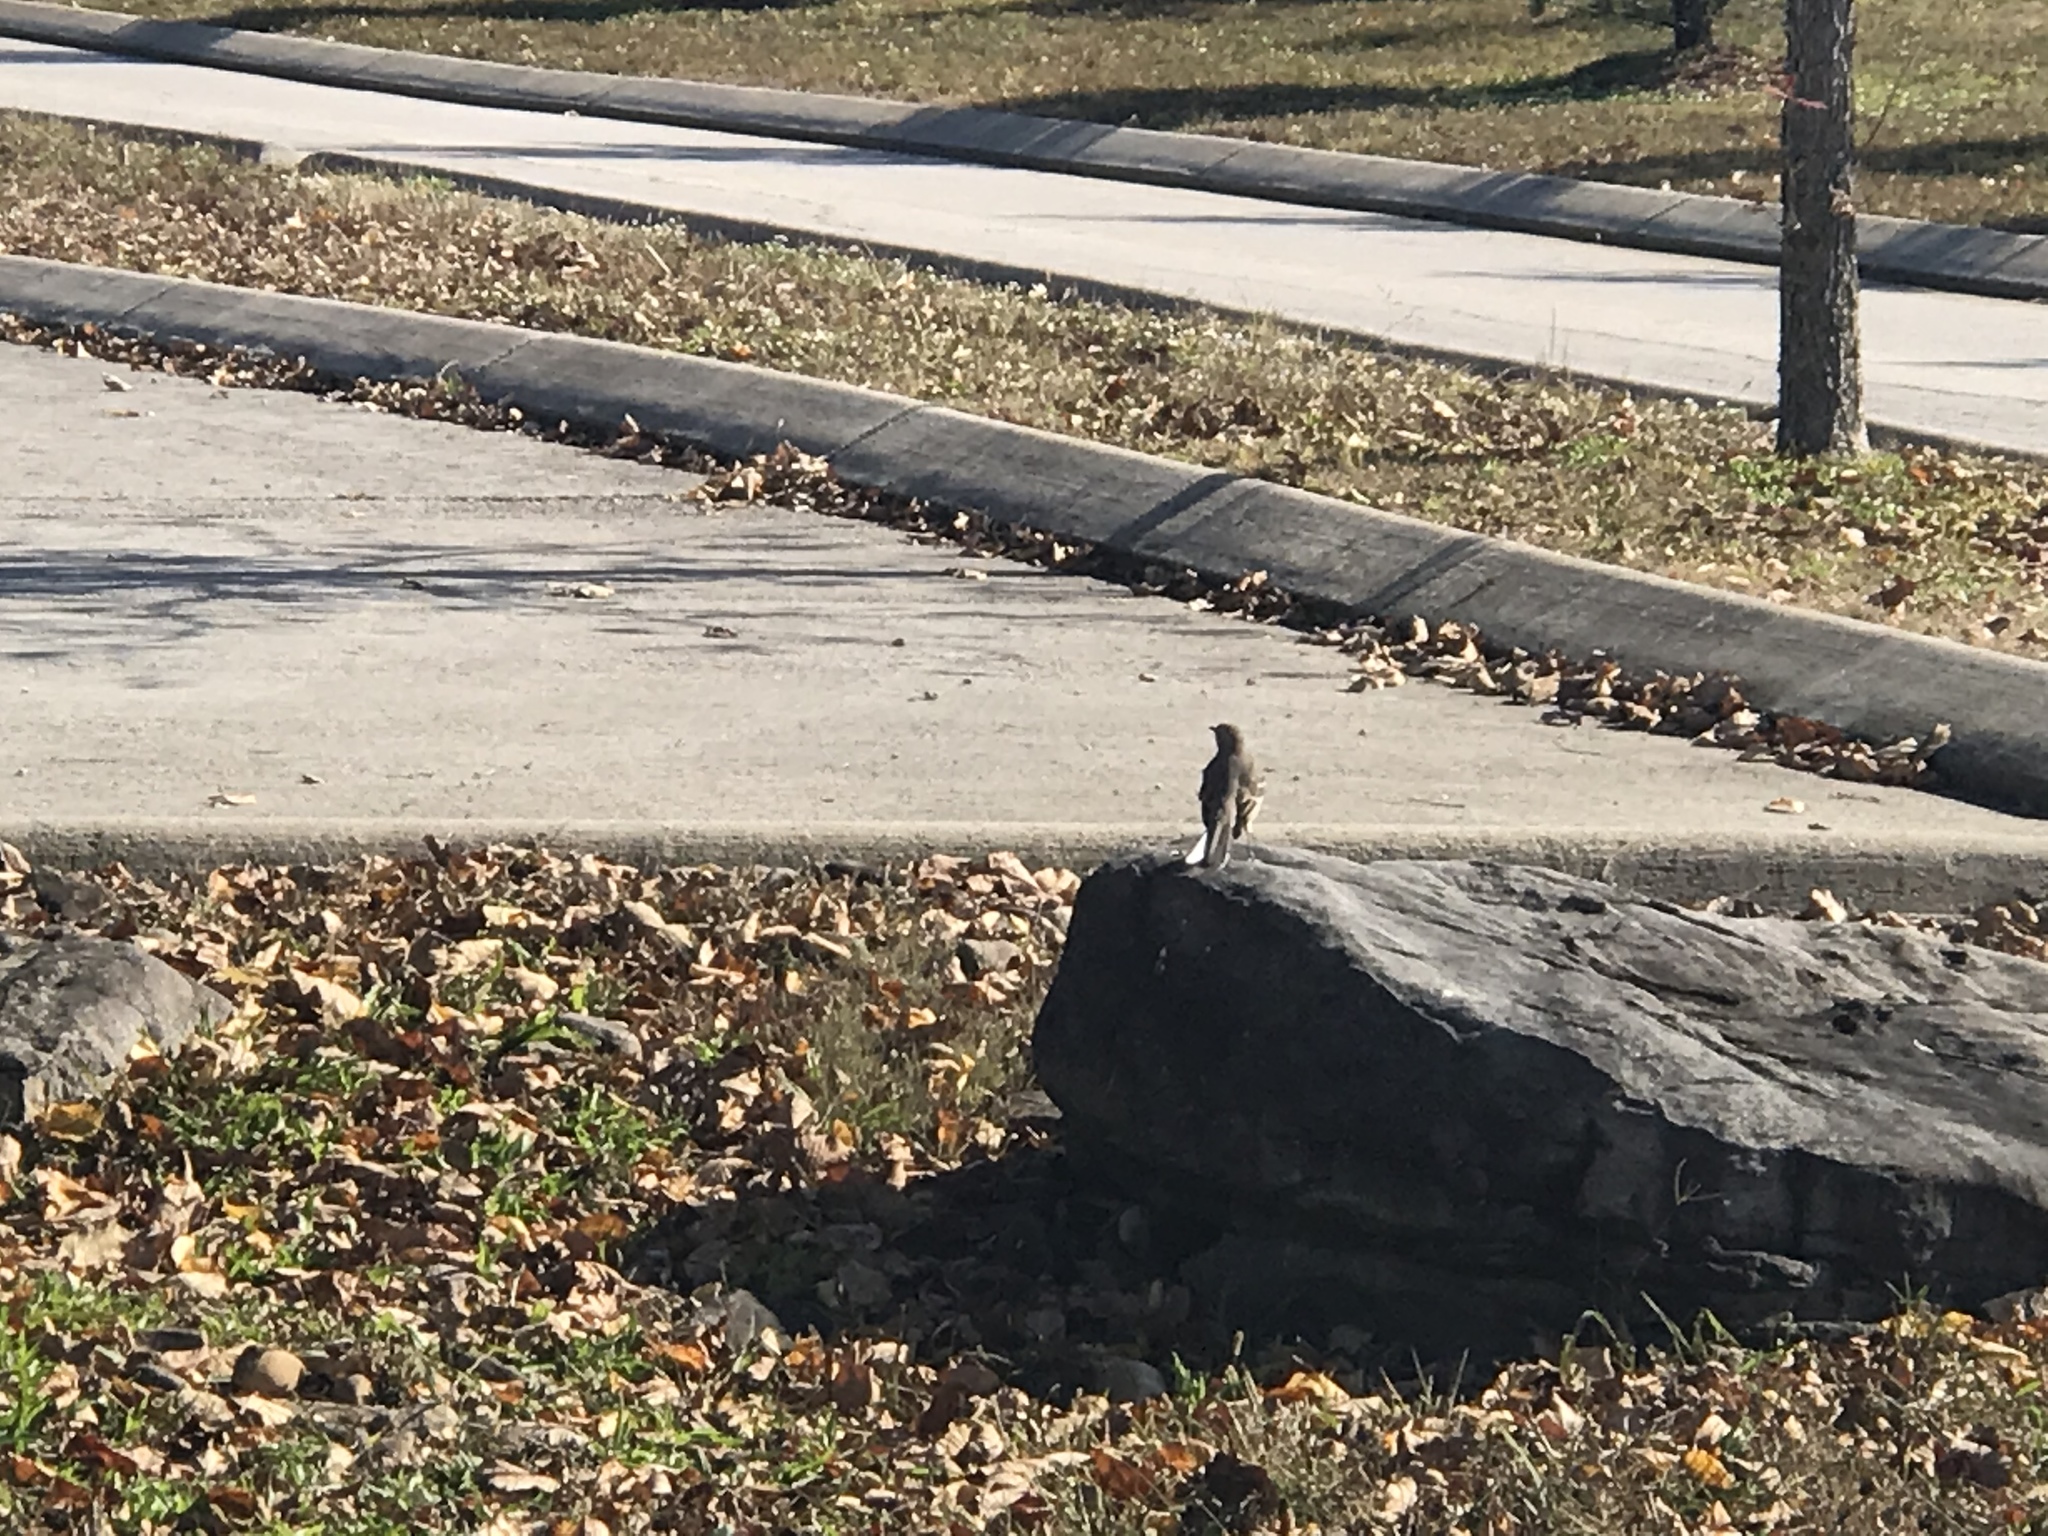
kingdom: Animalia
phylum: Chordata
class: Aves
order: Passeriformes
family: Mimidae
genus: Mimus
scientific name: Mimus polyglottos
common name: Northern mockingbird
